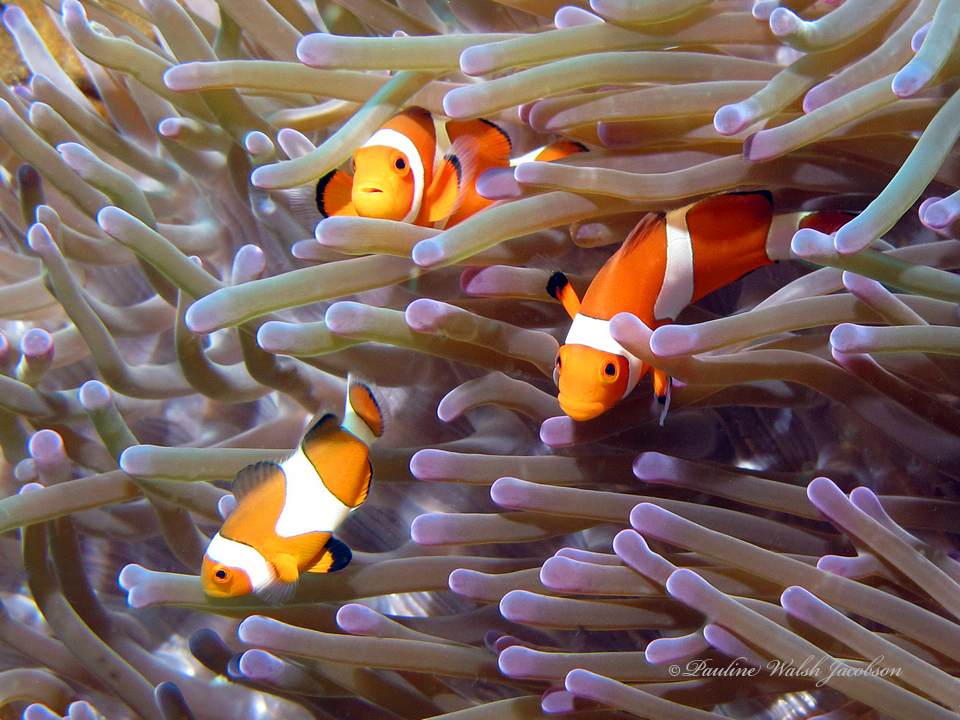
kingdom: Animalia
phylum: Chordata
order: Perciformes
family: Pomacentridae
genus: Amphiprion
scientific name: Amphiprion ocellaris
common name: Clown anemonefish
